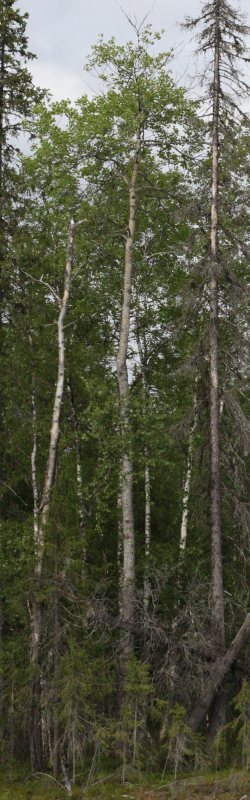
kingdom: Plantae
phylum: Tracheophyta
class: Magnoliopsida
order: Malpighiales
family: Salicaceae
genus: Populus
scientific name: Populus tremula
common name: European aspen
